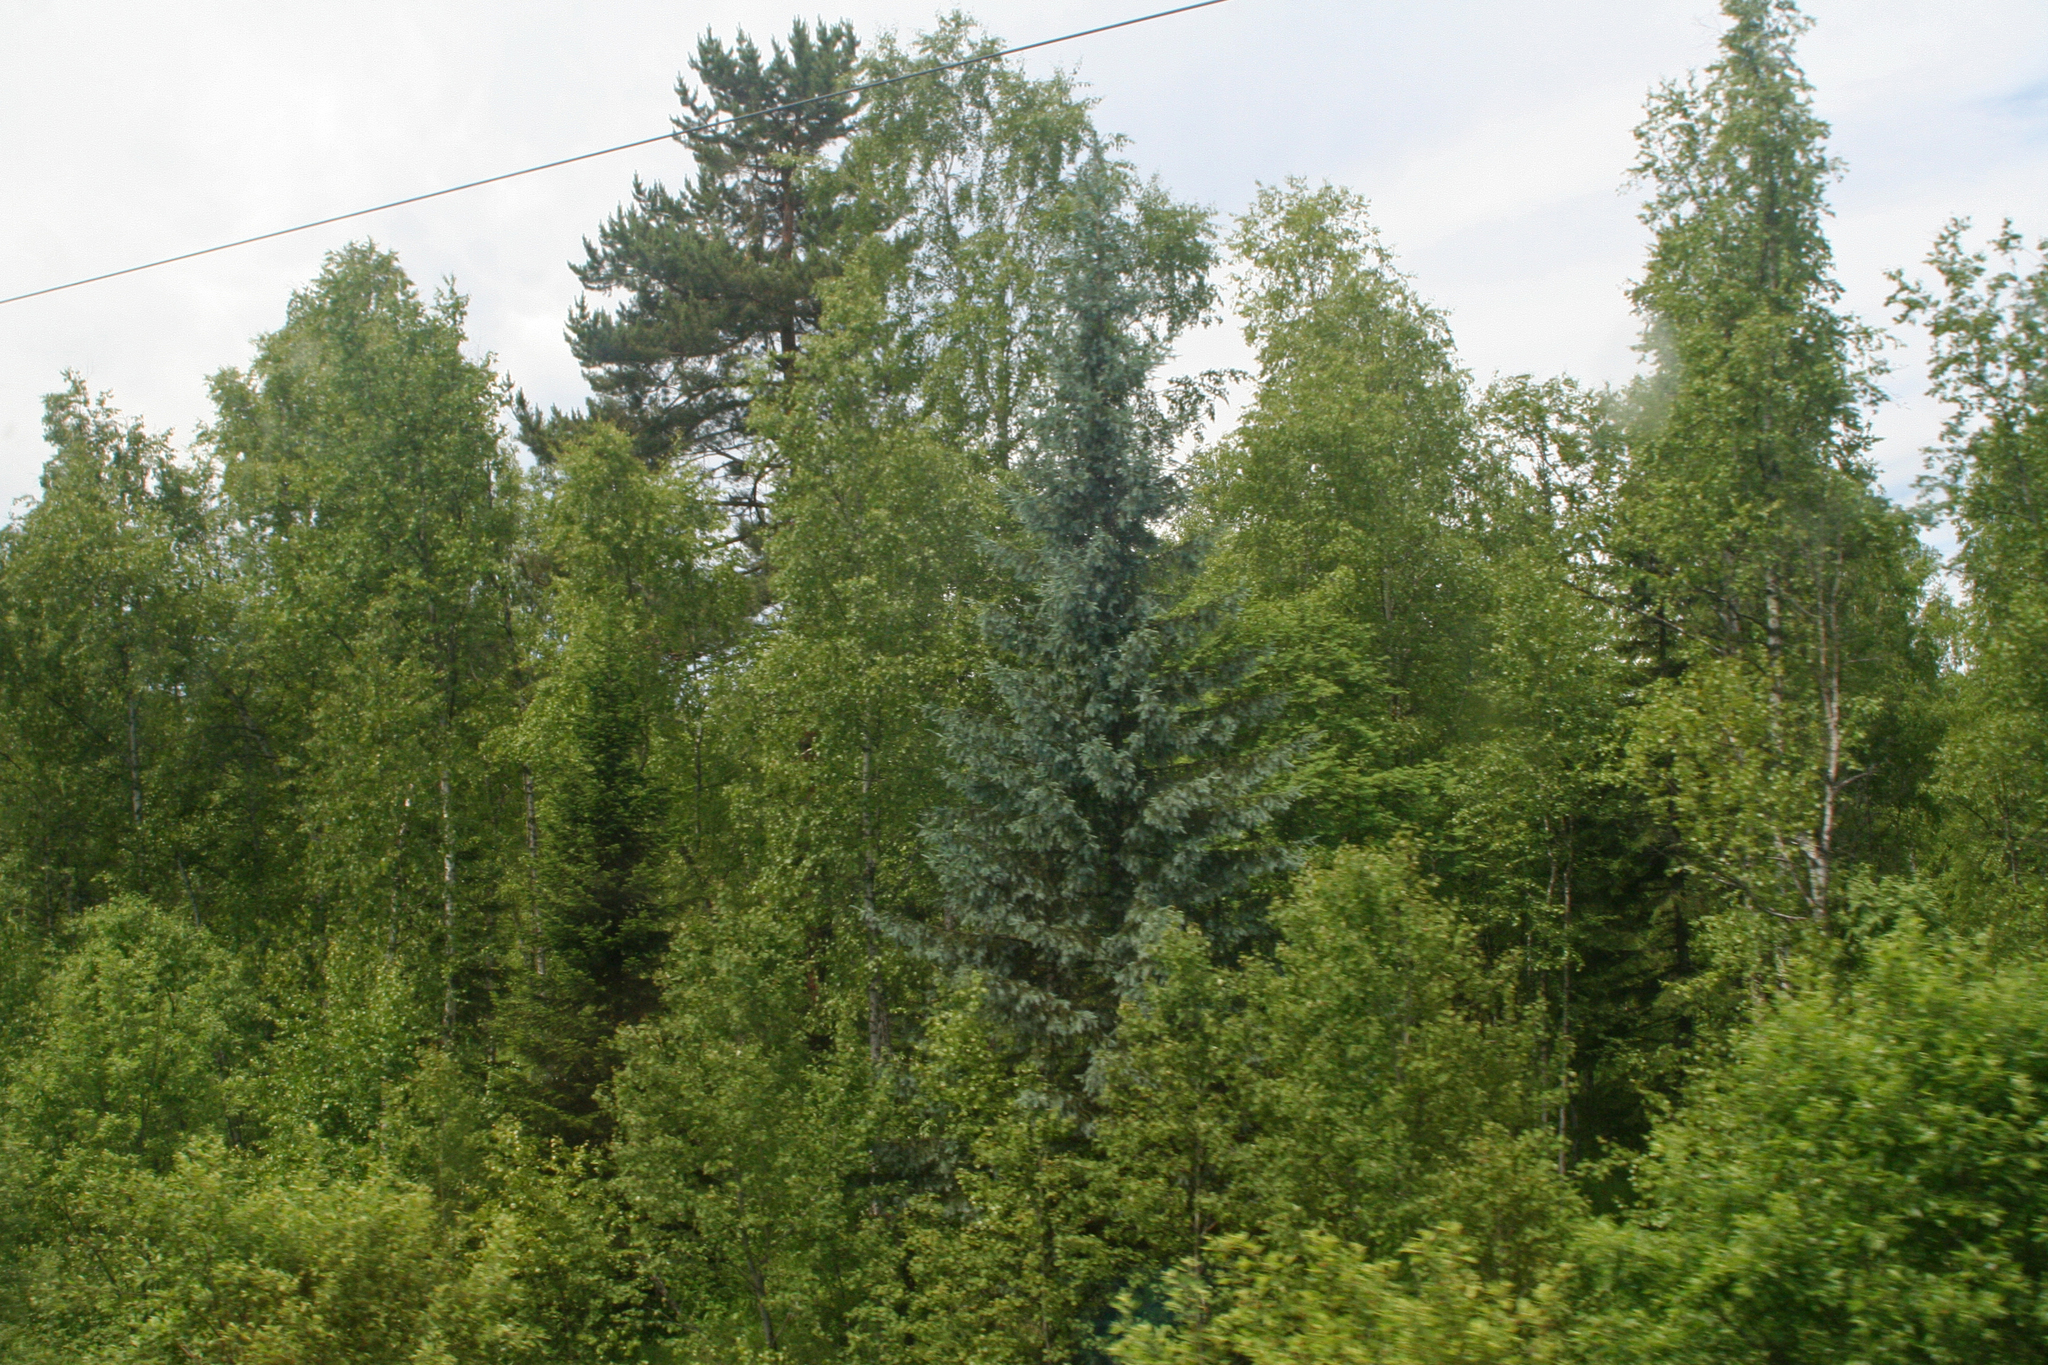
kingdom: Plantae
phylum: Tracheophyta
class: Pinopsida
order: Pinales
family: Pinaceae
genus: Picea
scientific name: Picea obovata
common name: Siberian spruce
